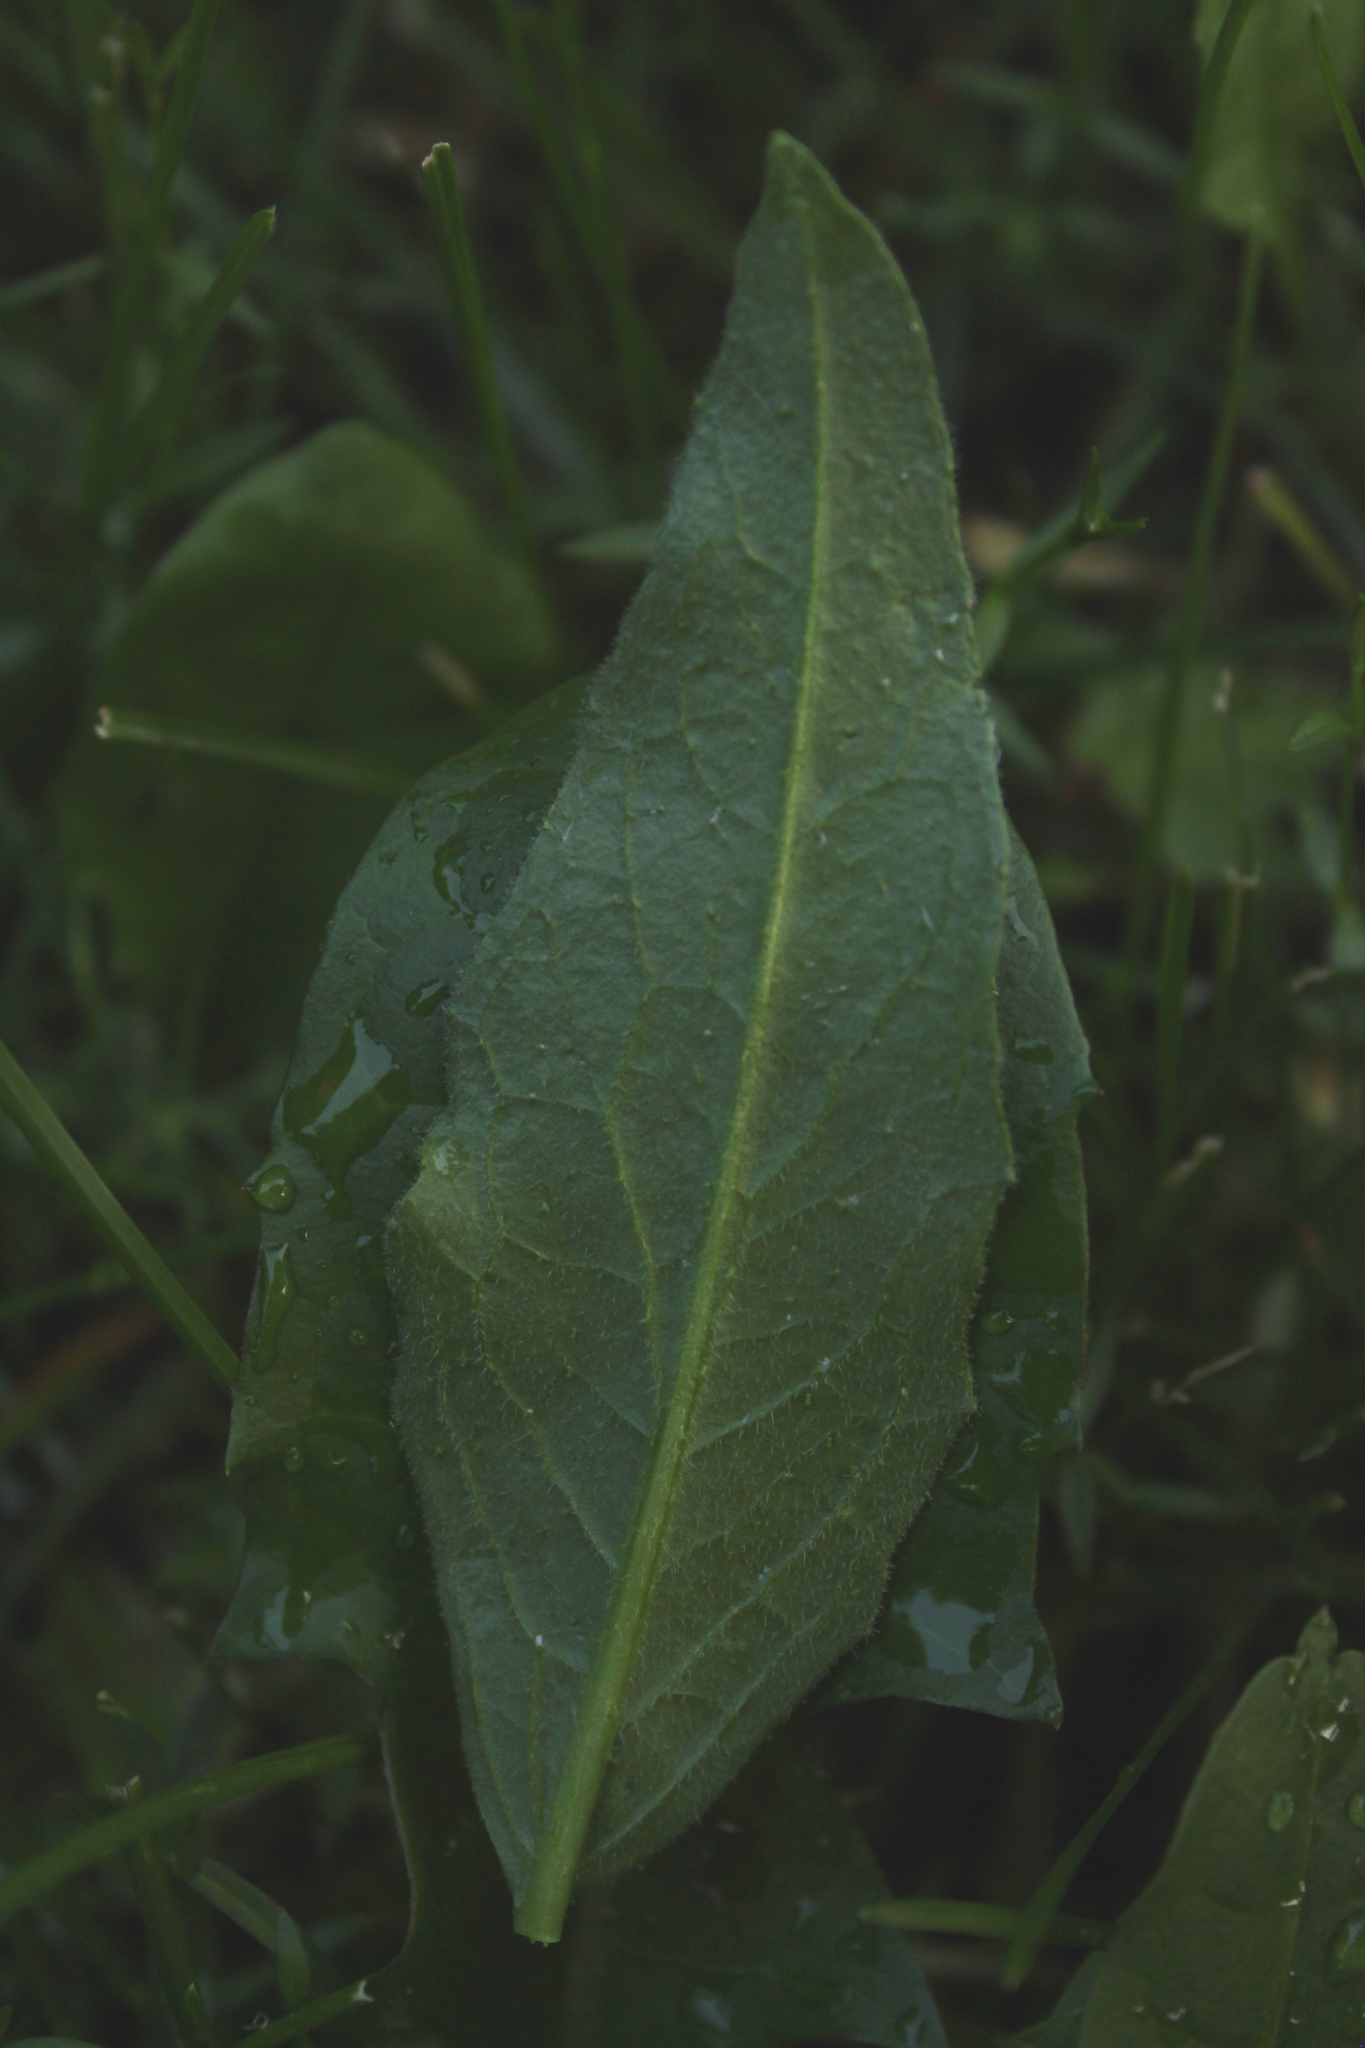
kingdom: Plantae
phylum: Tracheophyta
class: Magnoliopsida
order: Brassicales
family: Brassicaceae
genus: Bunias
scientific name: Bunias orientalis
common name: Warty-cabbage
